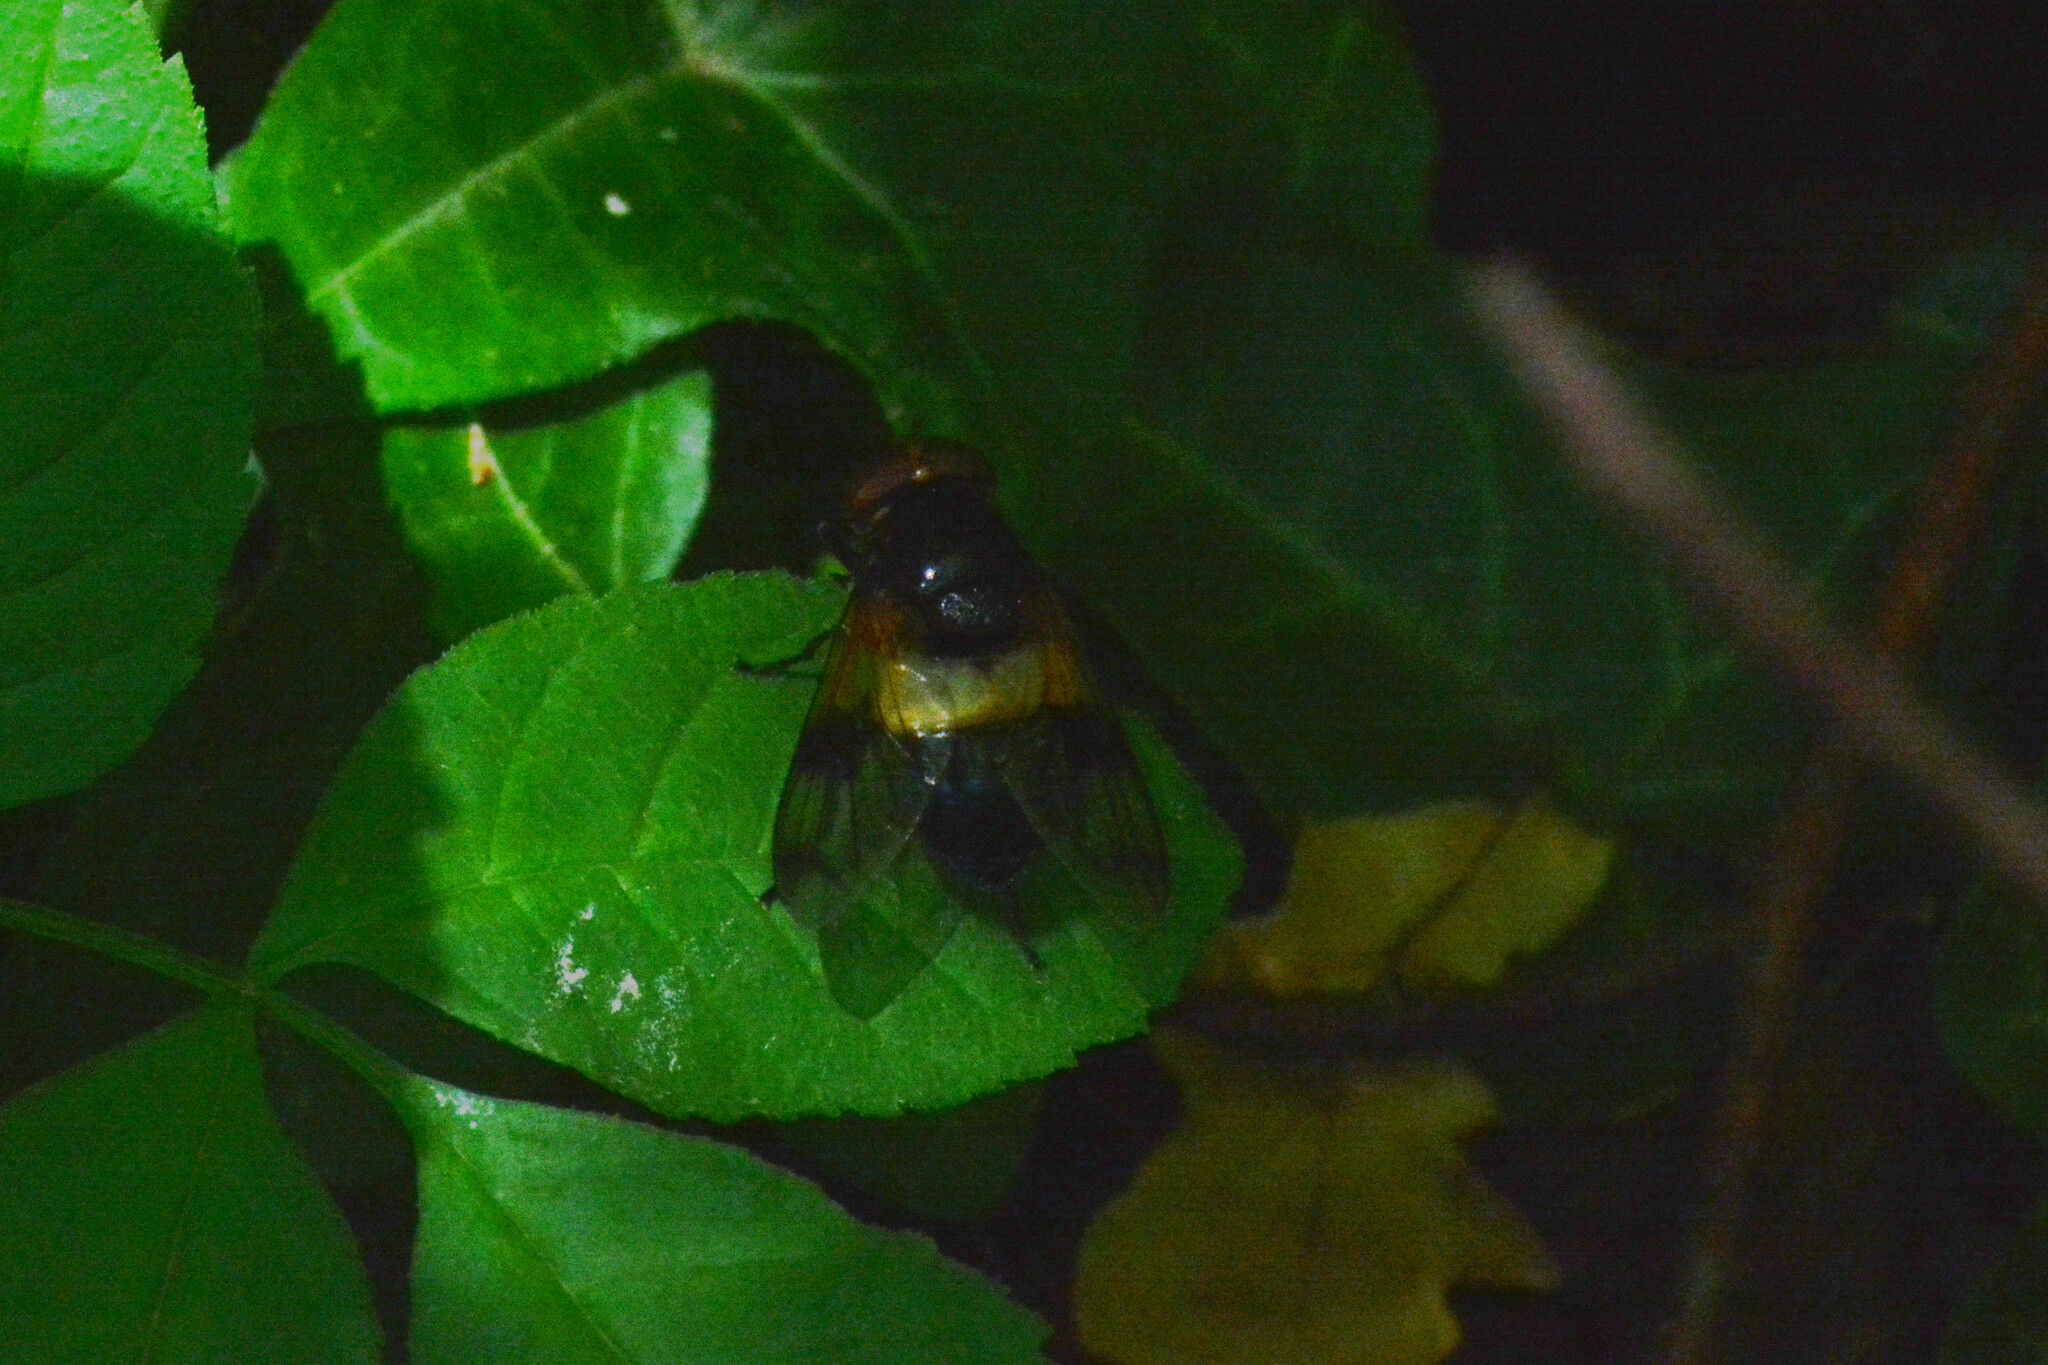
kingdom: Animalia
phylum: Arthropoda
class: Insecta
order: Diptera
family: Syrphidae
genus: Volucella
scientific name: Volucella pellucens
